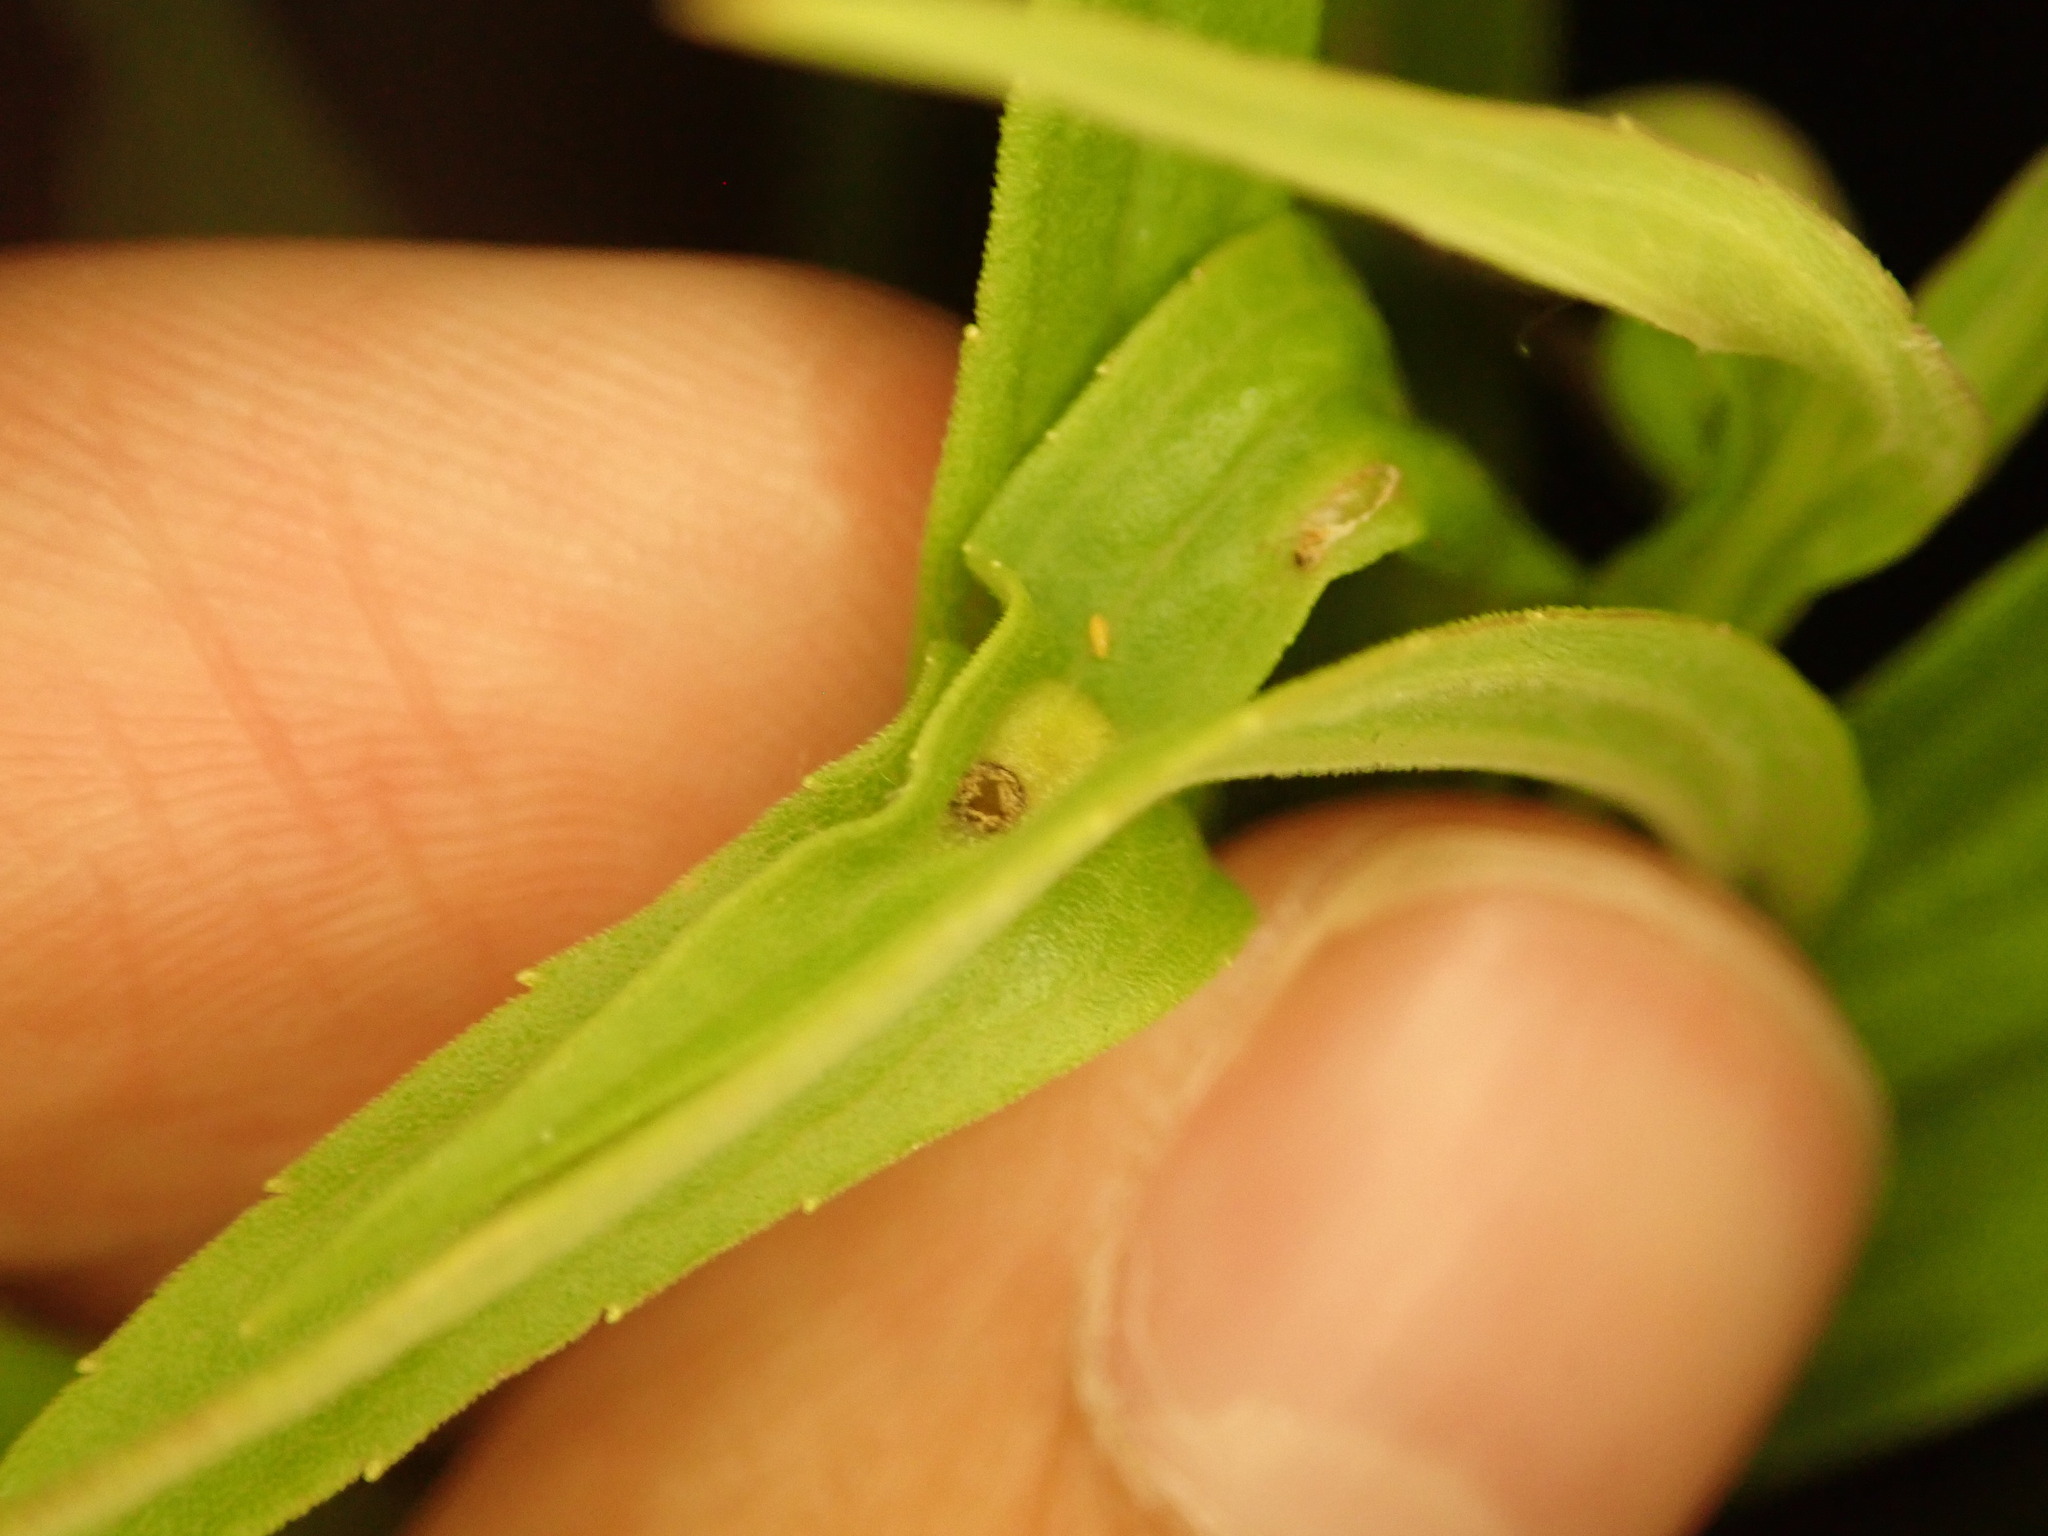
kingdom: Animalia
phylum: Arthropoda
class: Insecta
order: Diptera
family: Cecidomyiidae
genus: Asphondylia
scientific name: Asphondylia solidaginis
